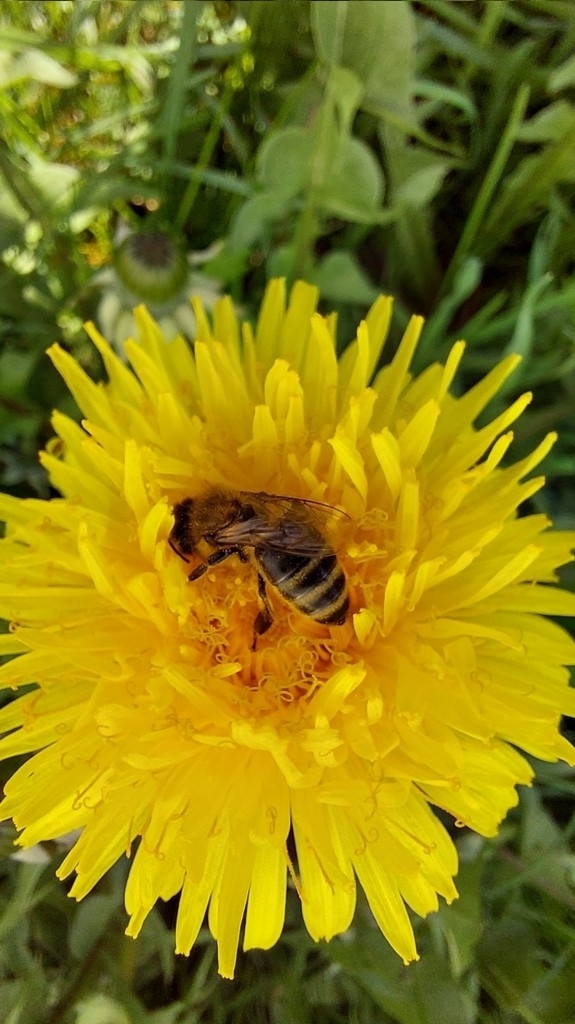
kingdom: Animalia
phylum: Arthropoda
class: Insecta
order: Hymenoptera
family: Apidae
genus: Apis
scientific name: Apis mellifera
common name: Honey bee
